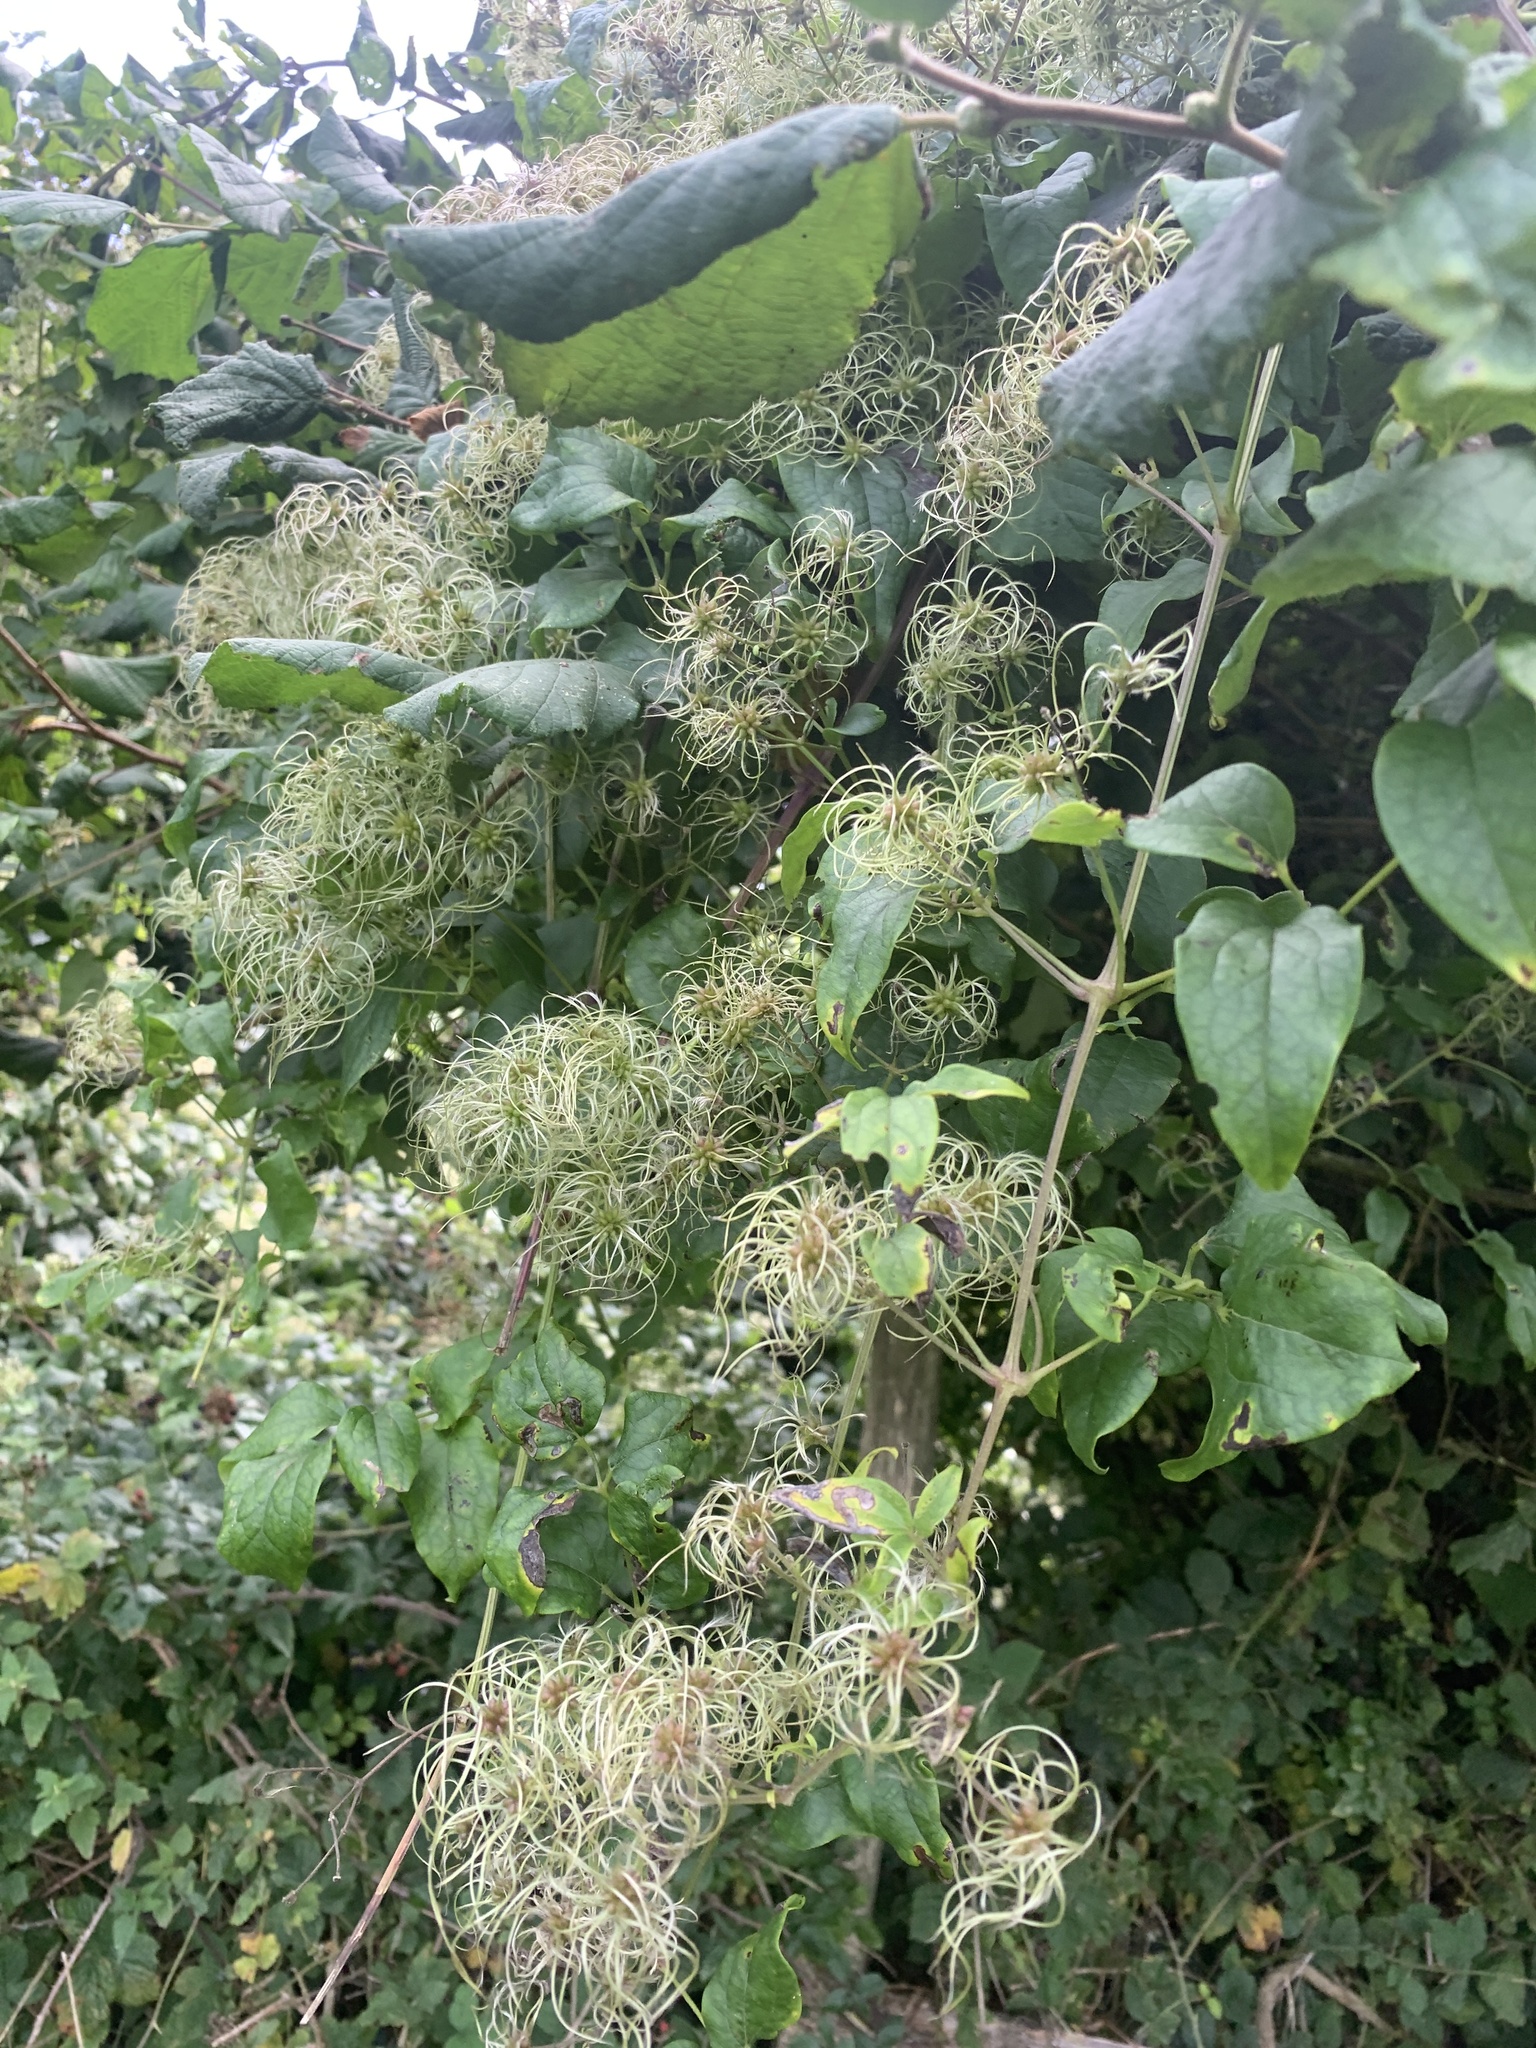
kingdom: Plantae
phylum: Tracheophyta
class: Magnoliopsida
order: Ranunculales
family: Ranunculaceae
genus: Clematis
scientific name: Clematis vitalba
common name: Evergreen clematis
